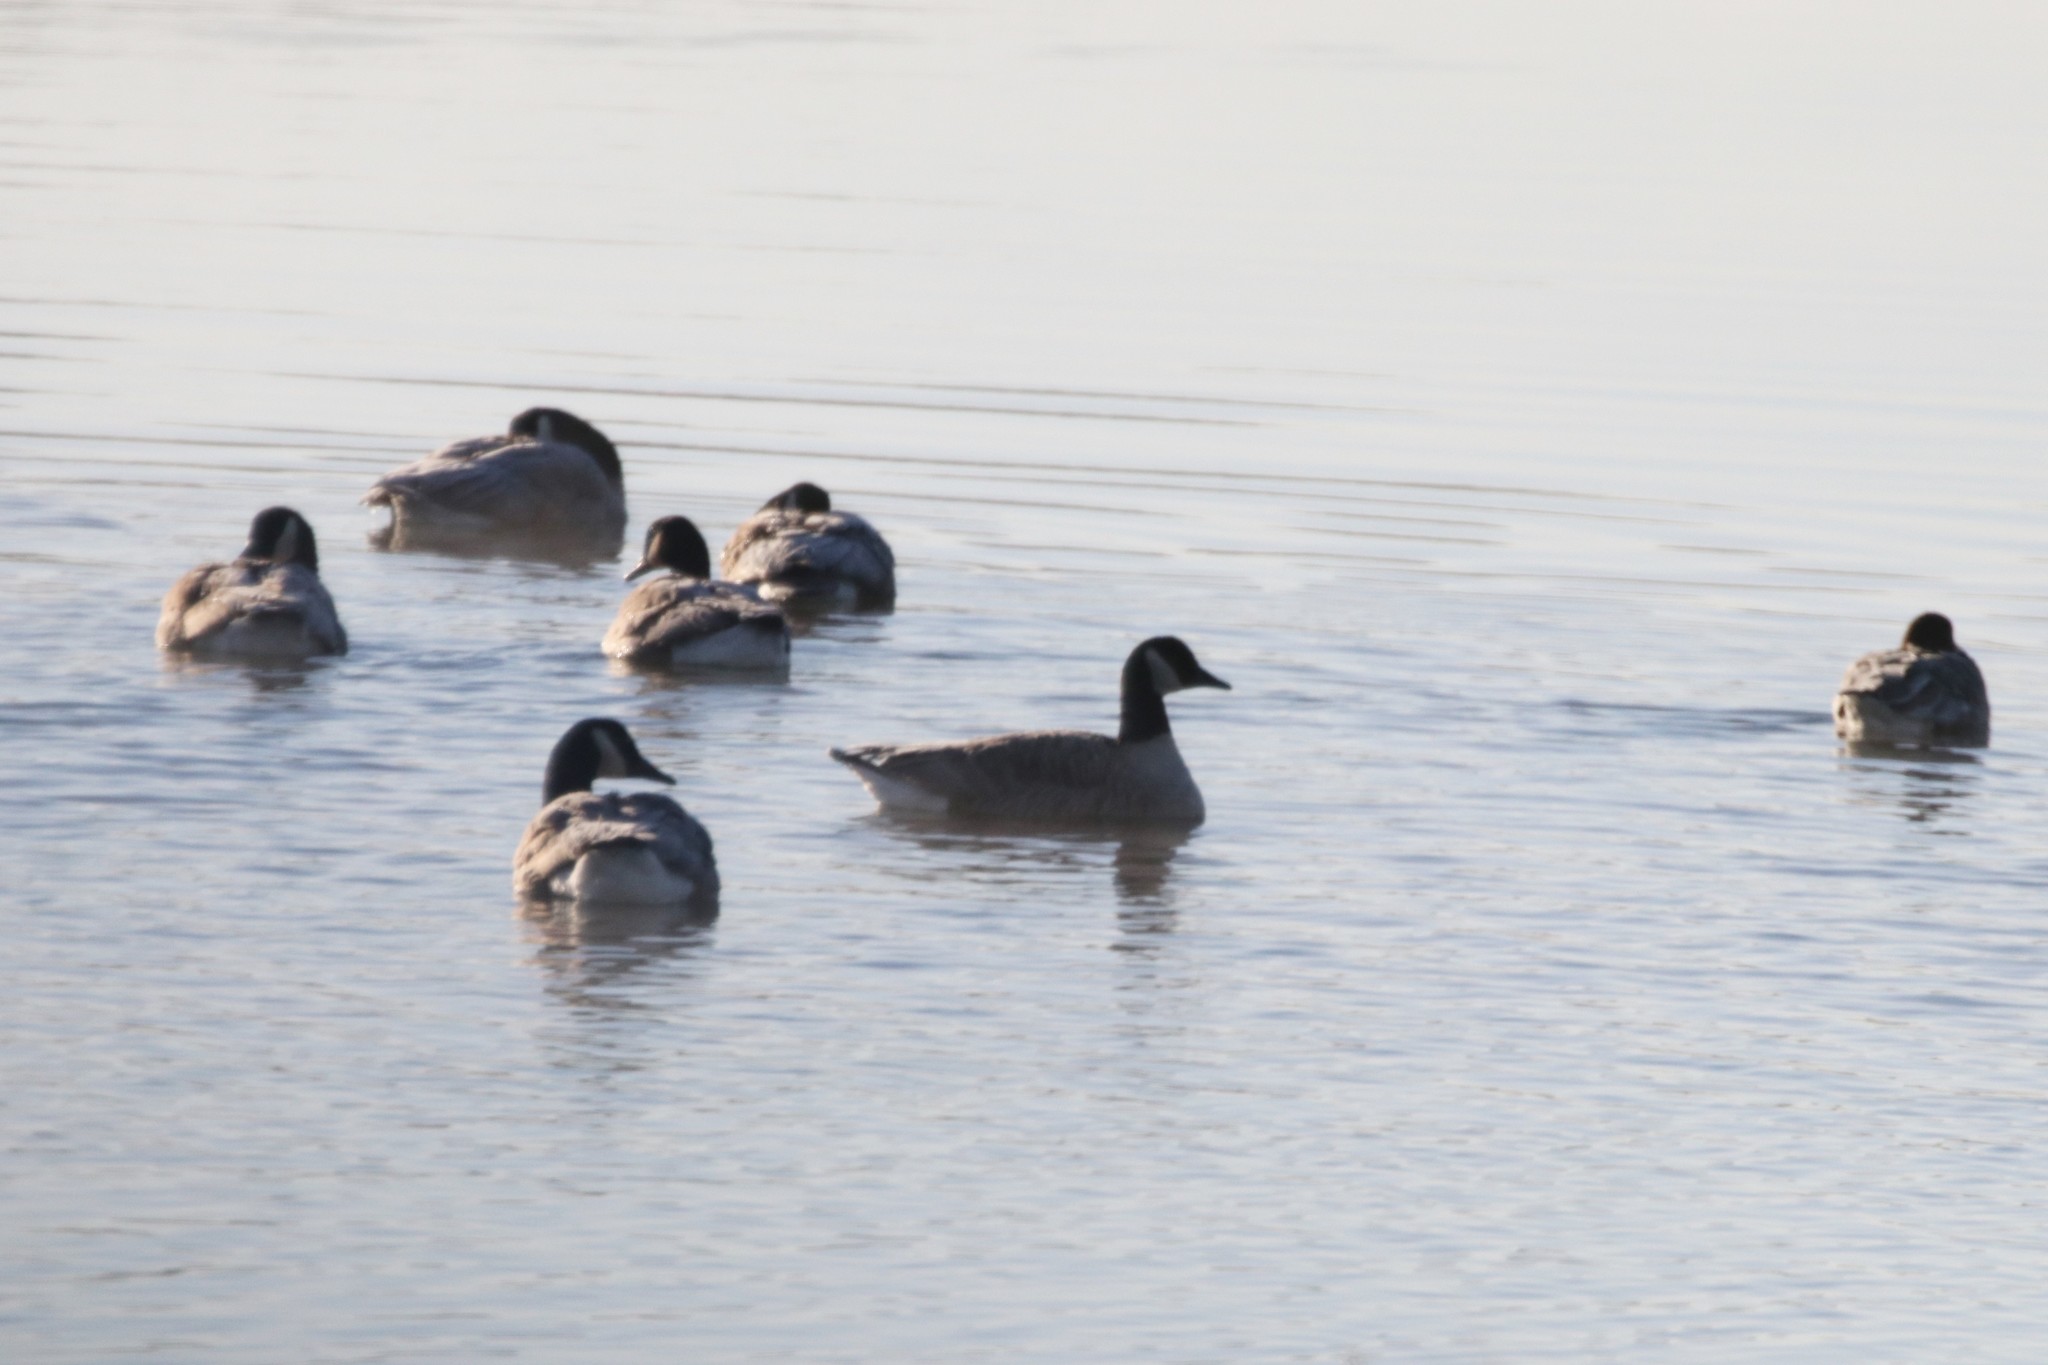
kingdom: Animalia
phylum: Chordata
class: Aves
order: Anseriformes
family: Anatidae
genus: Branta
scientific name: Branta canadensis
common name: Canada goose
